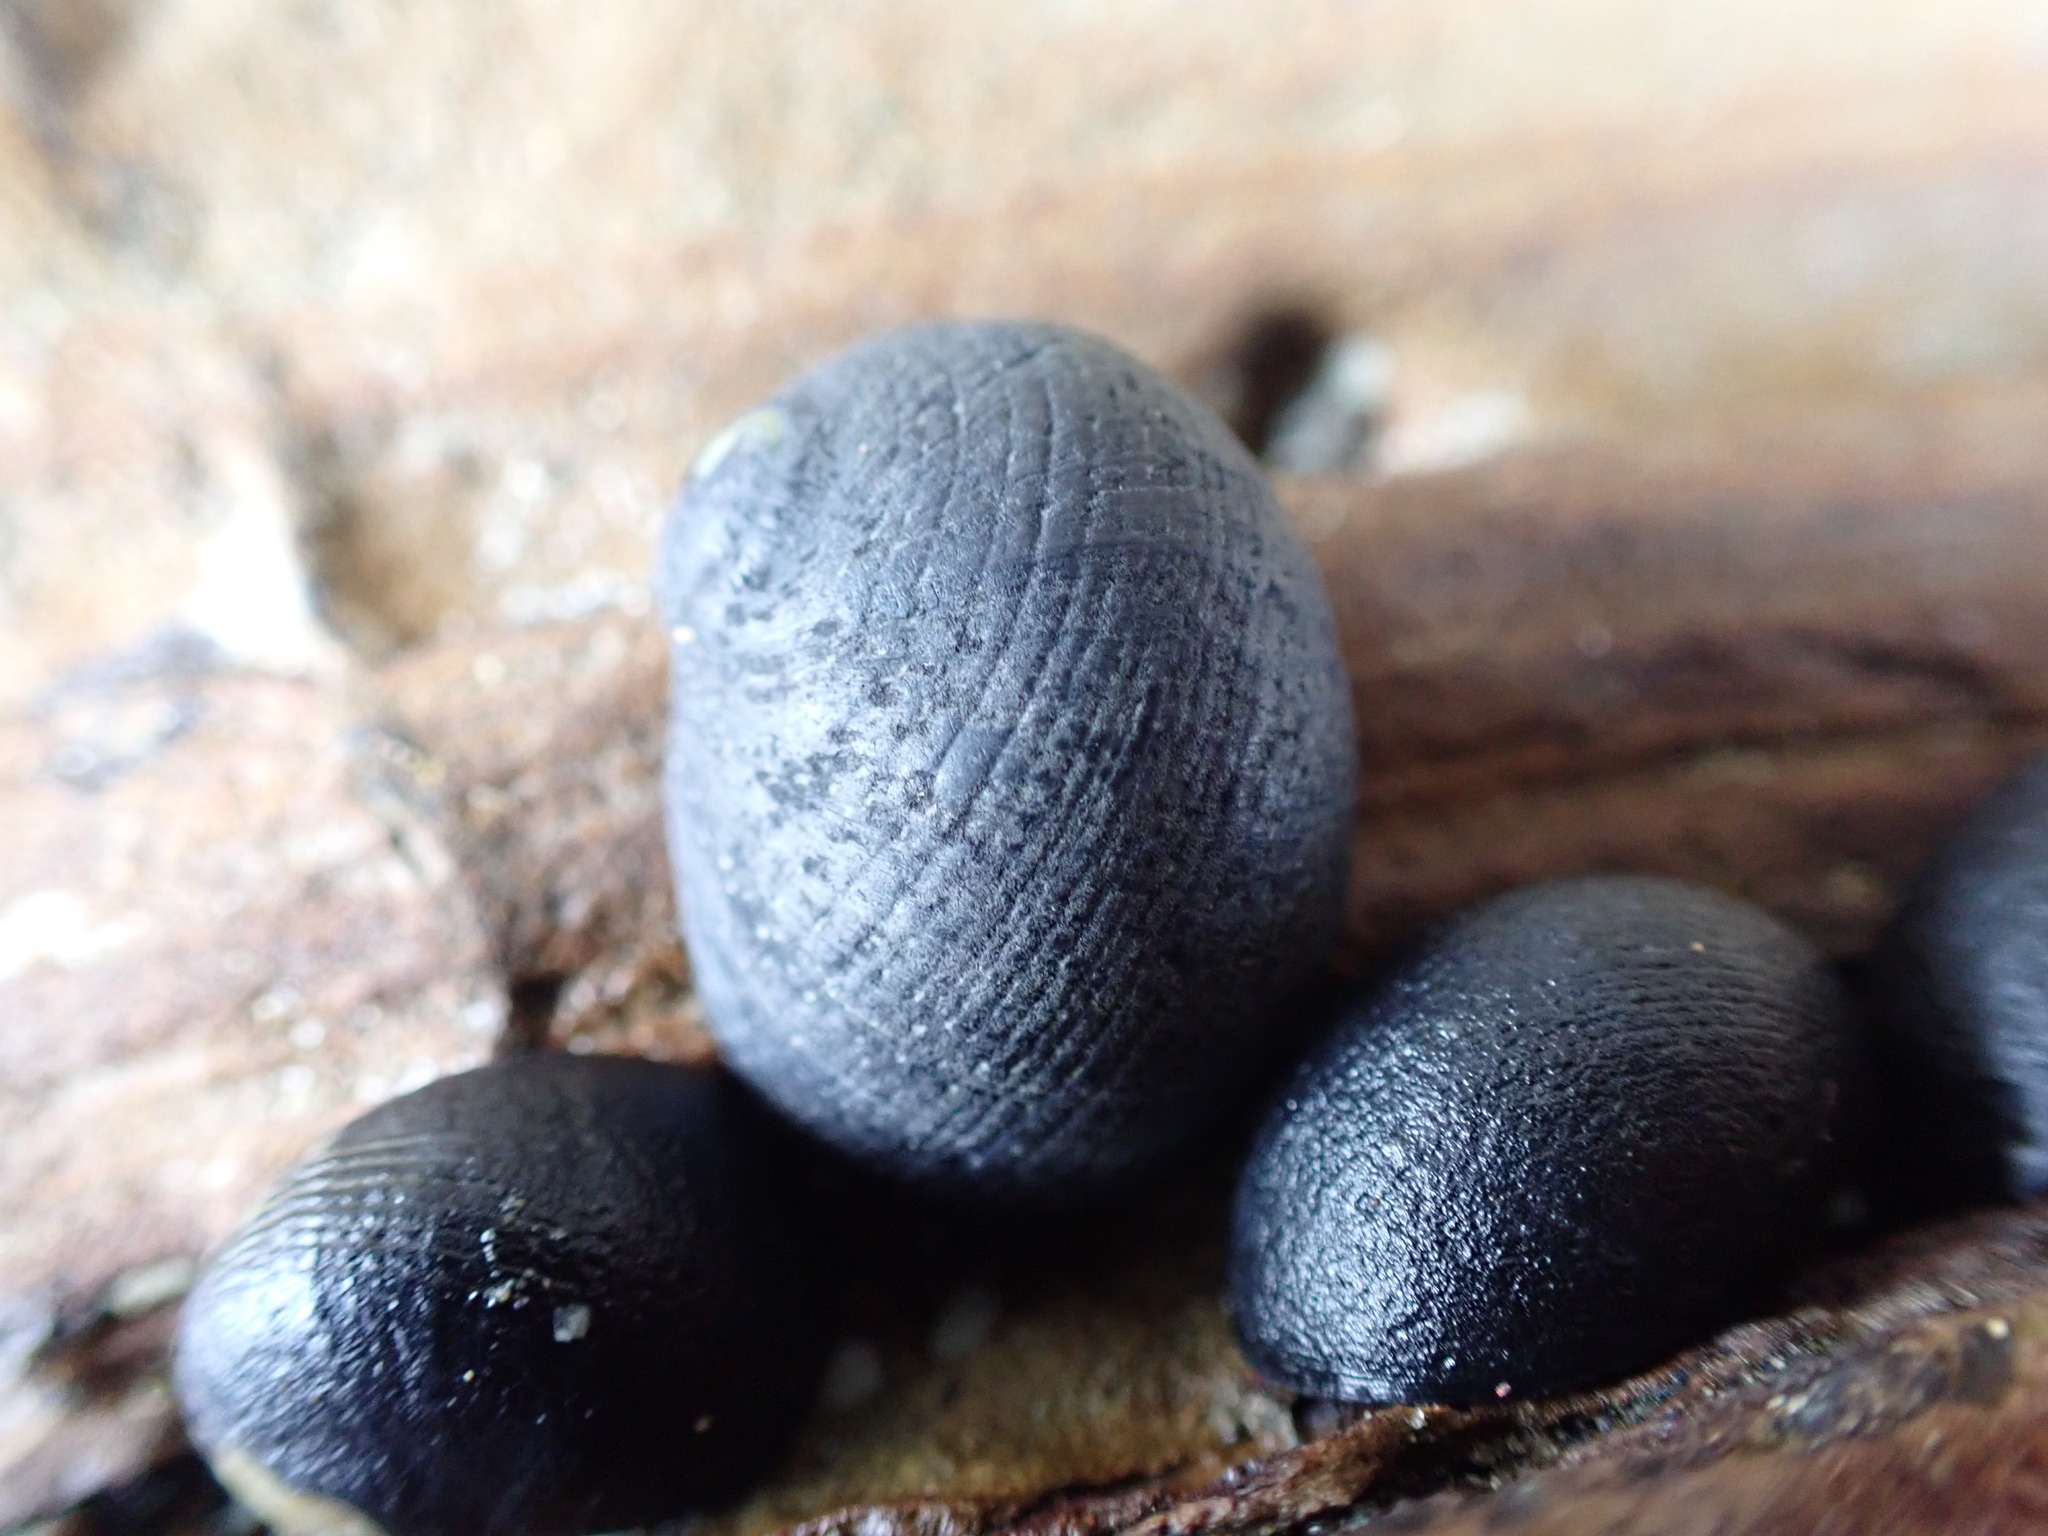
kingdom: Animalia
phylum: Mollusca
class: Gastropoda
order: Cycloneritida
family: Neritidae
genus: Nerita
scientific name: Nerita melanotragus
